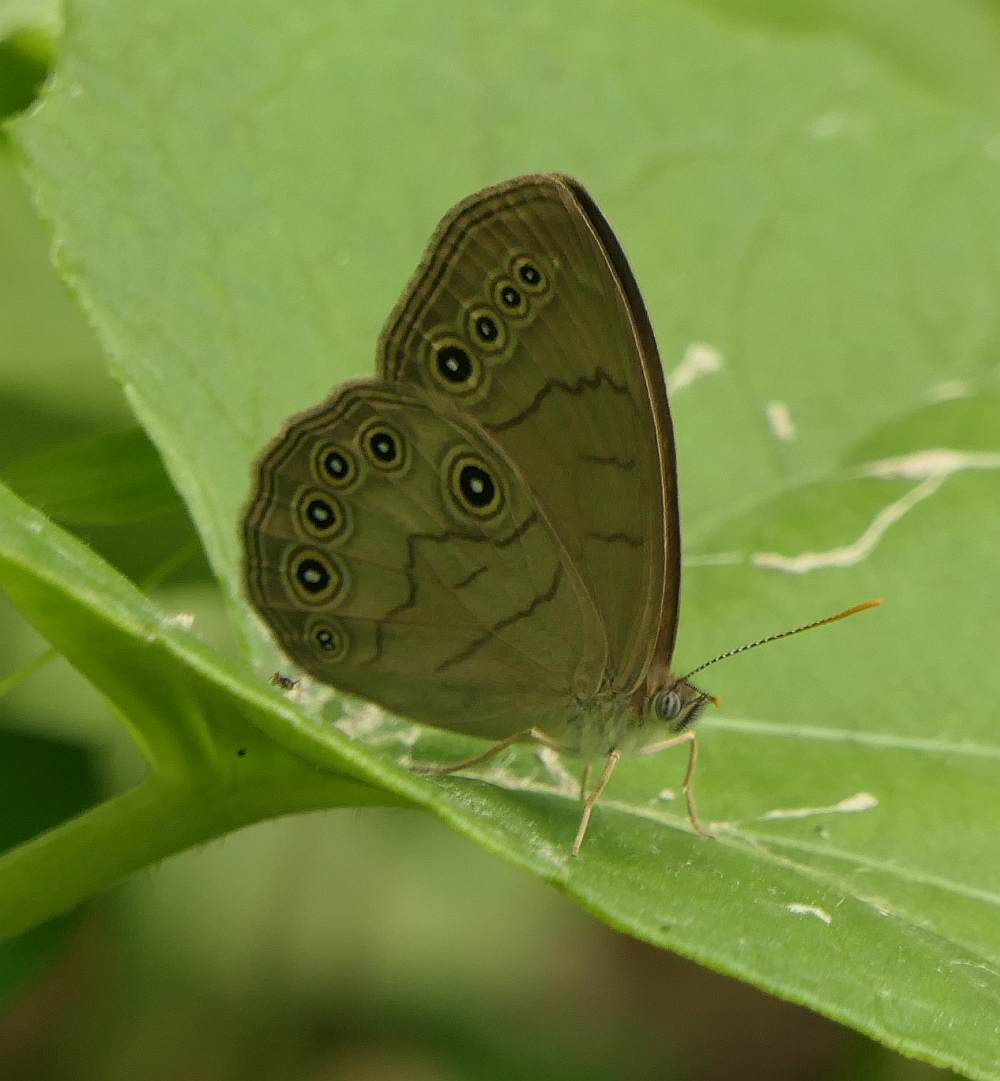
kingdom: Animalia
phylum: Arthropoda
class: Insecta
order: Lepidoptera
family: Nymphalidae
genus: Lethe
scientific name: Lethe eurydice
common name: Eyed brown
